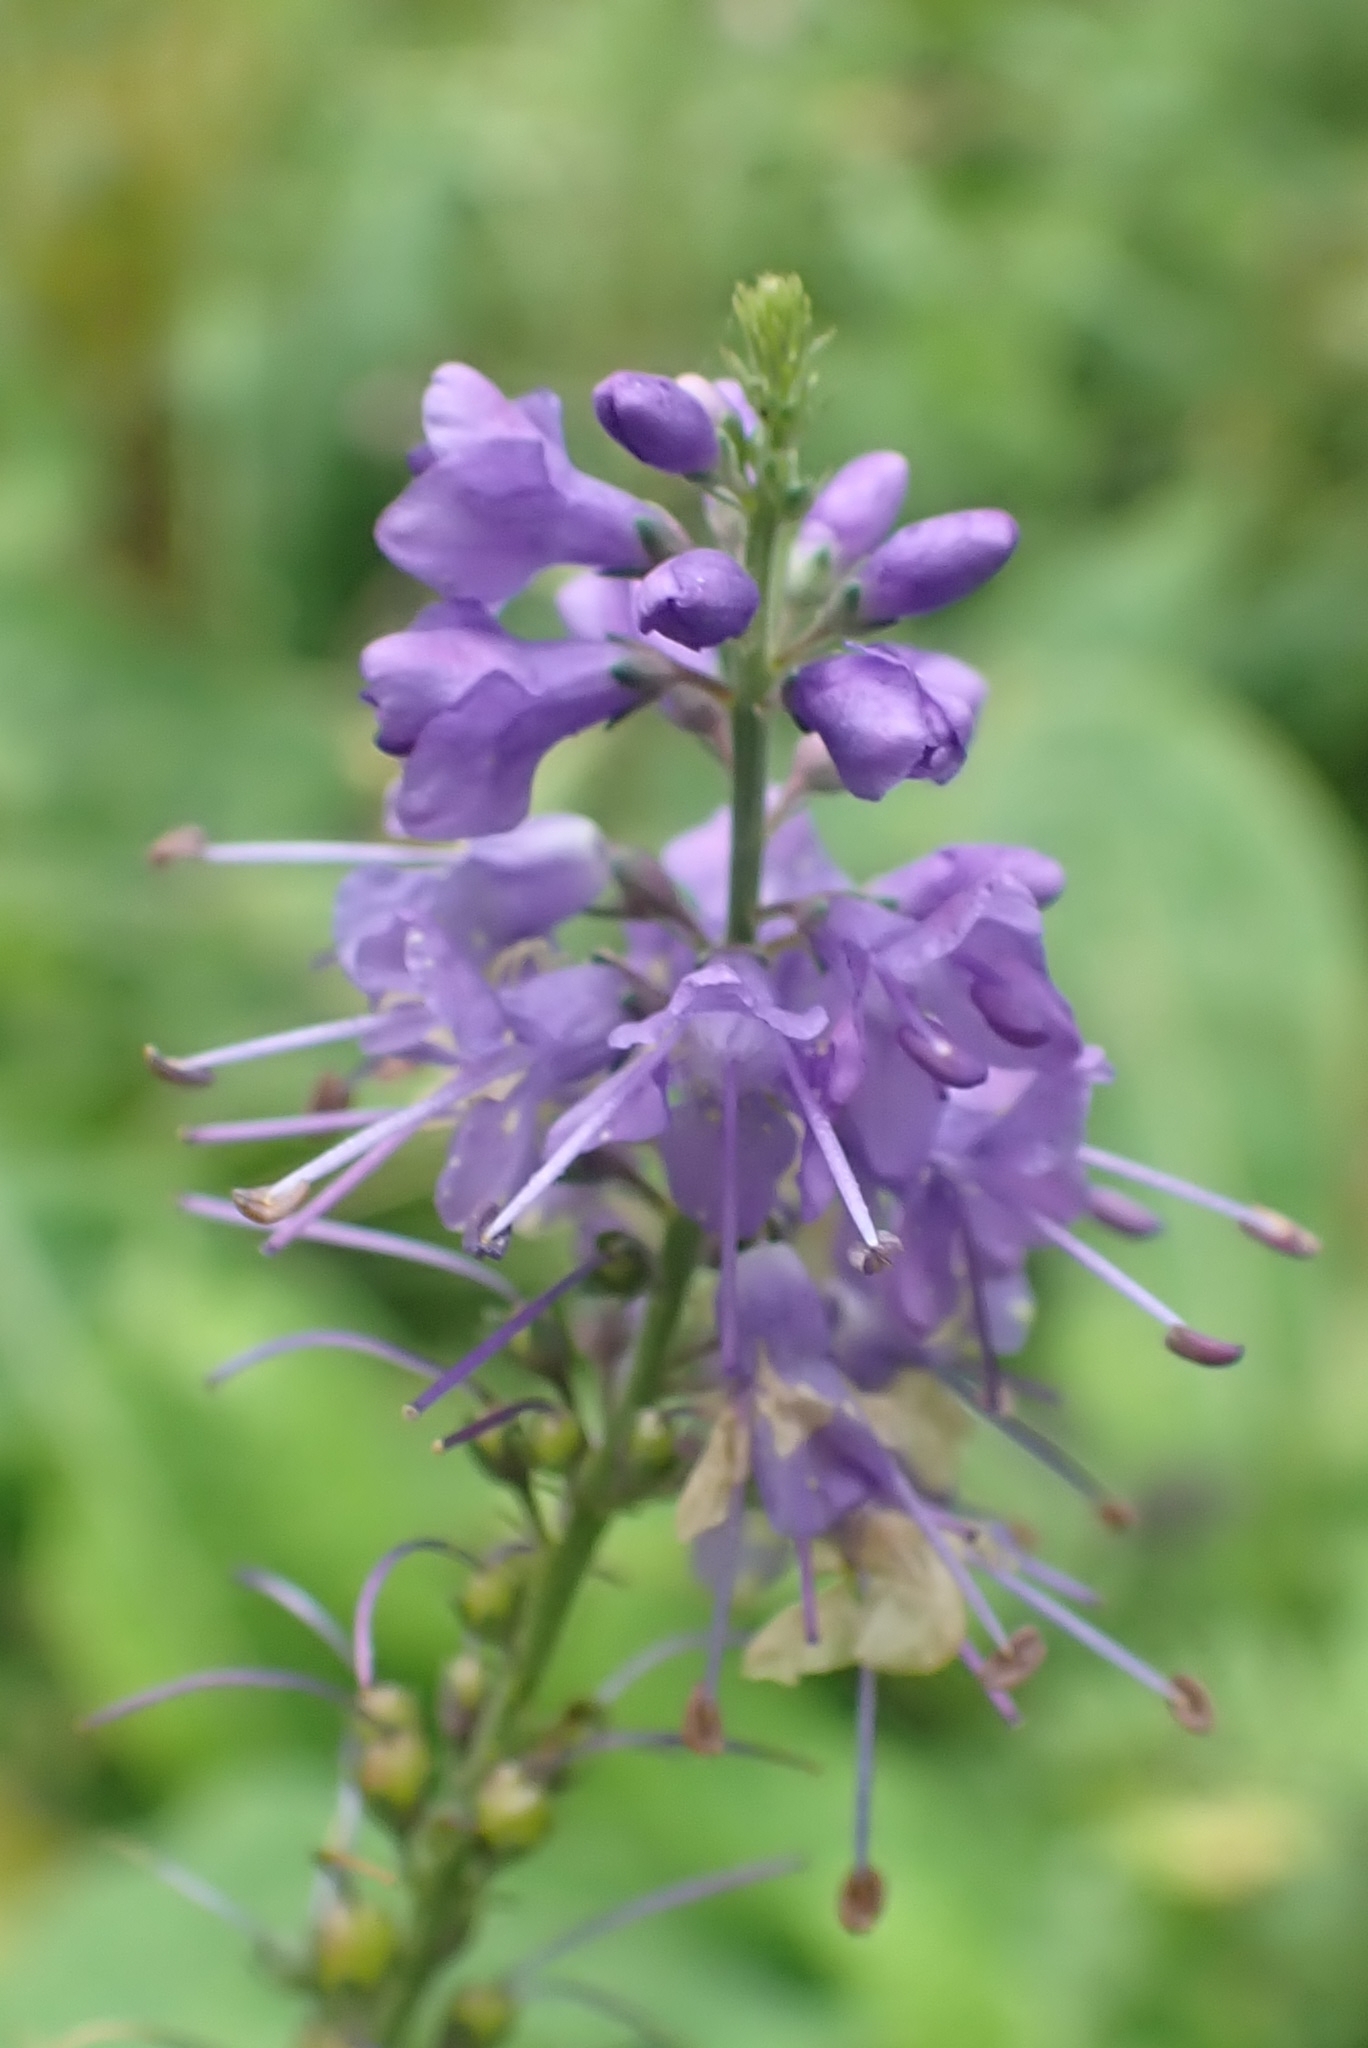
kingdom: Plantae
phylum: Tracheophyta
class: Magnoliopsida
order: Lamiales
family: Plantaginaceae
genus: Veronica
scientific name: Veronica longifolia
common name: Garden speedwell
